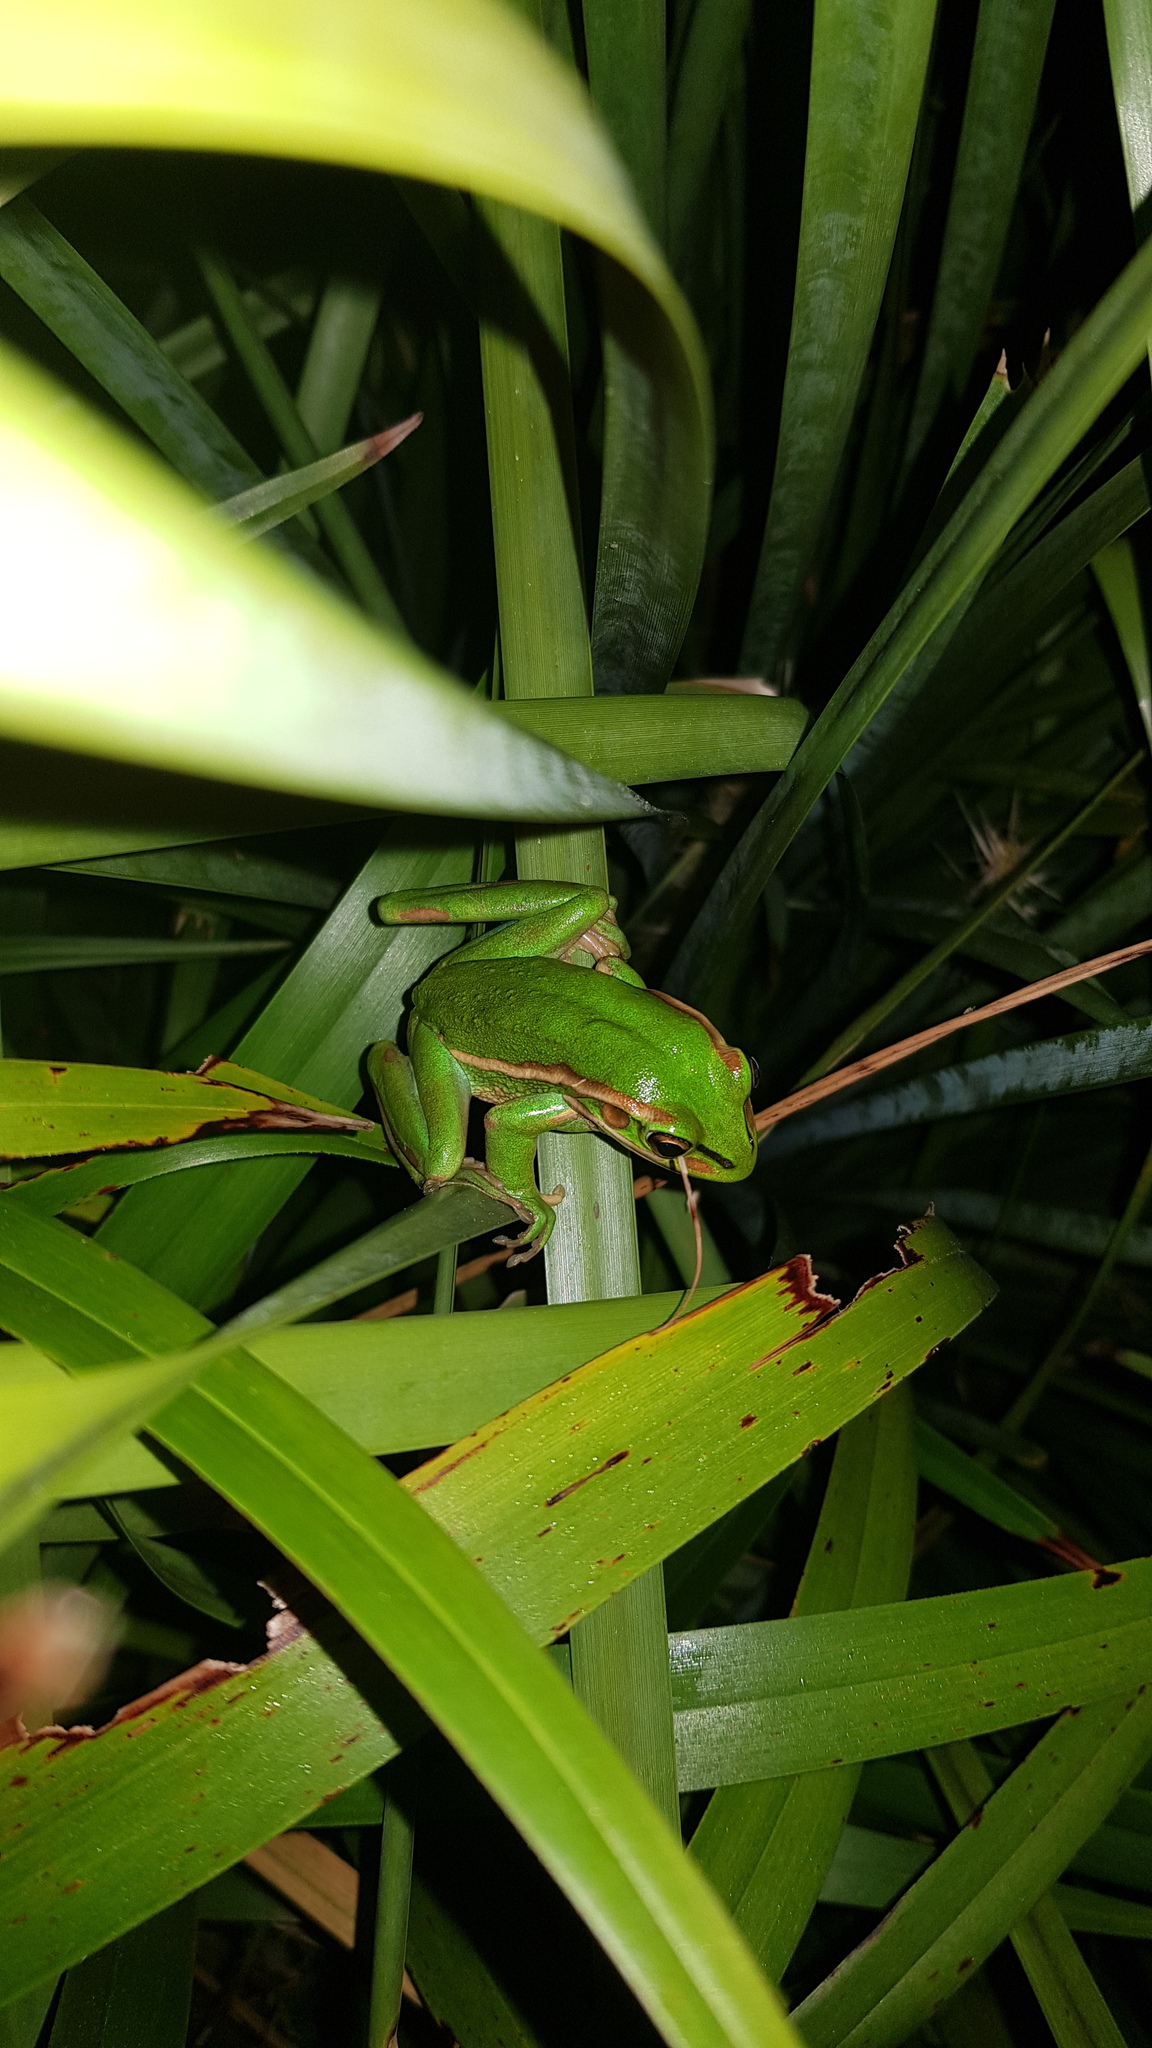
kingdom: Animalia
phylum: Chordata
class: Amphibia
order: Anura
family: Pelodryadidae
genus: Ranoidea
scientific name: Ranoidea aurea
